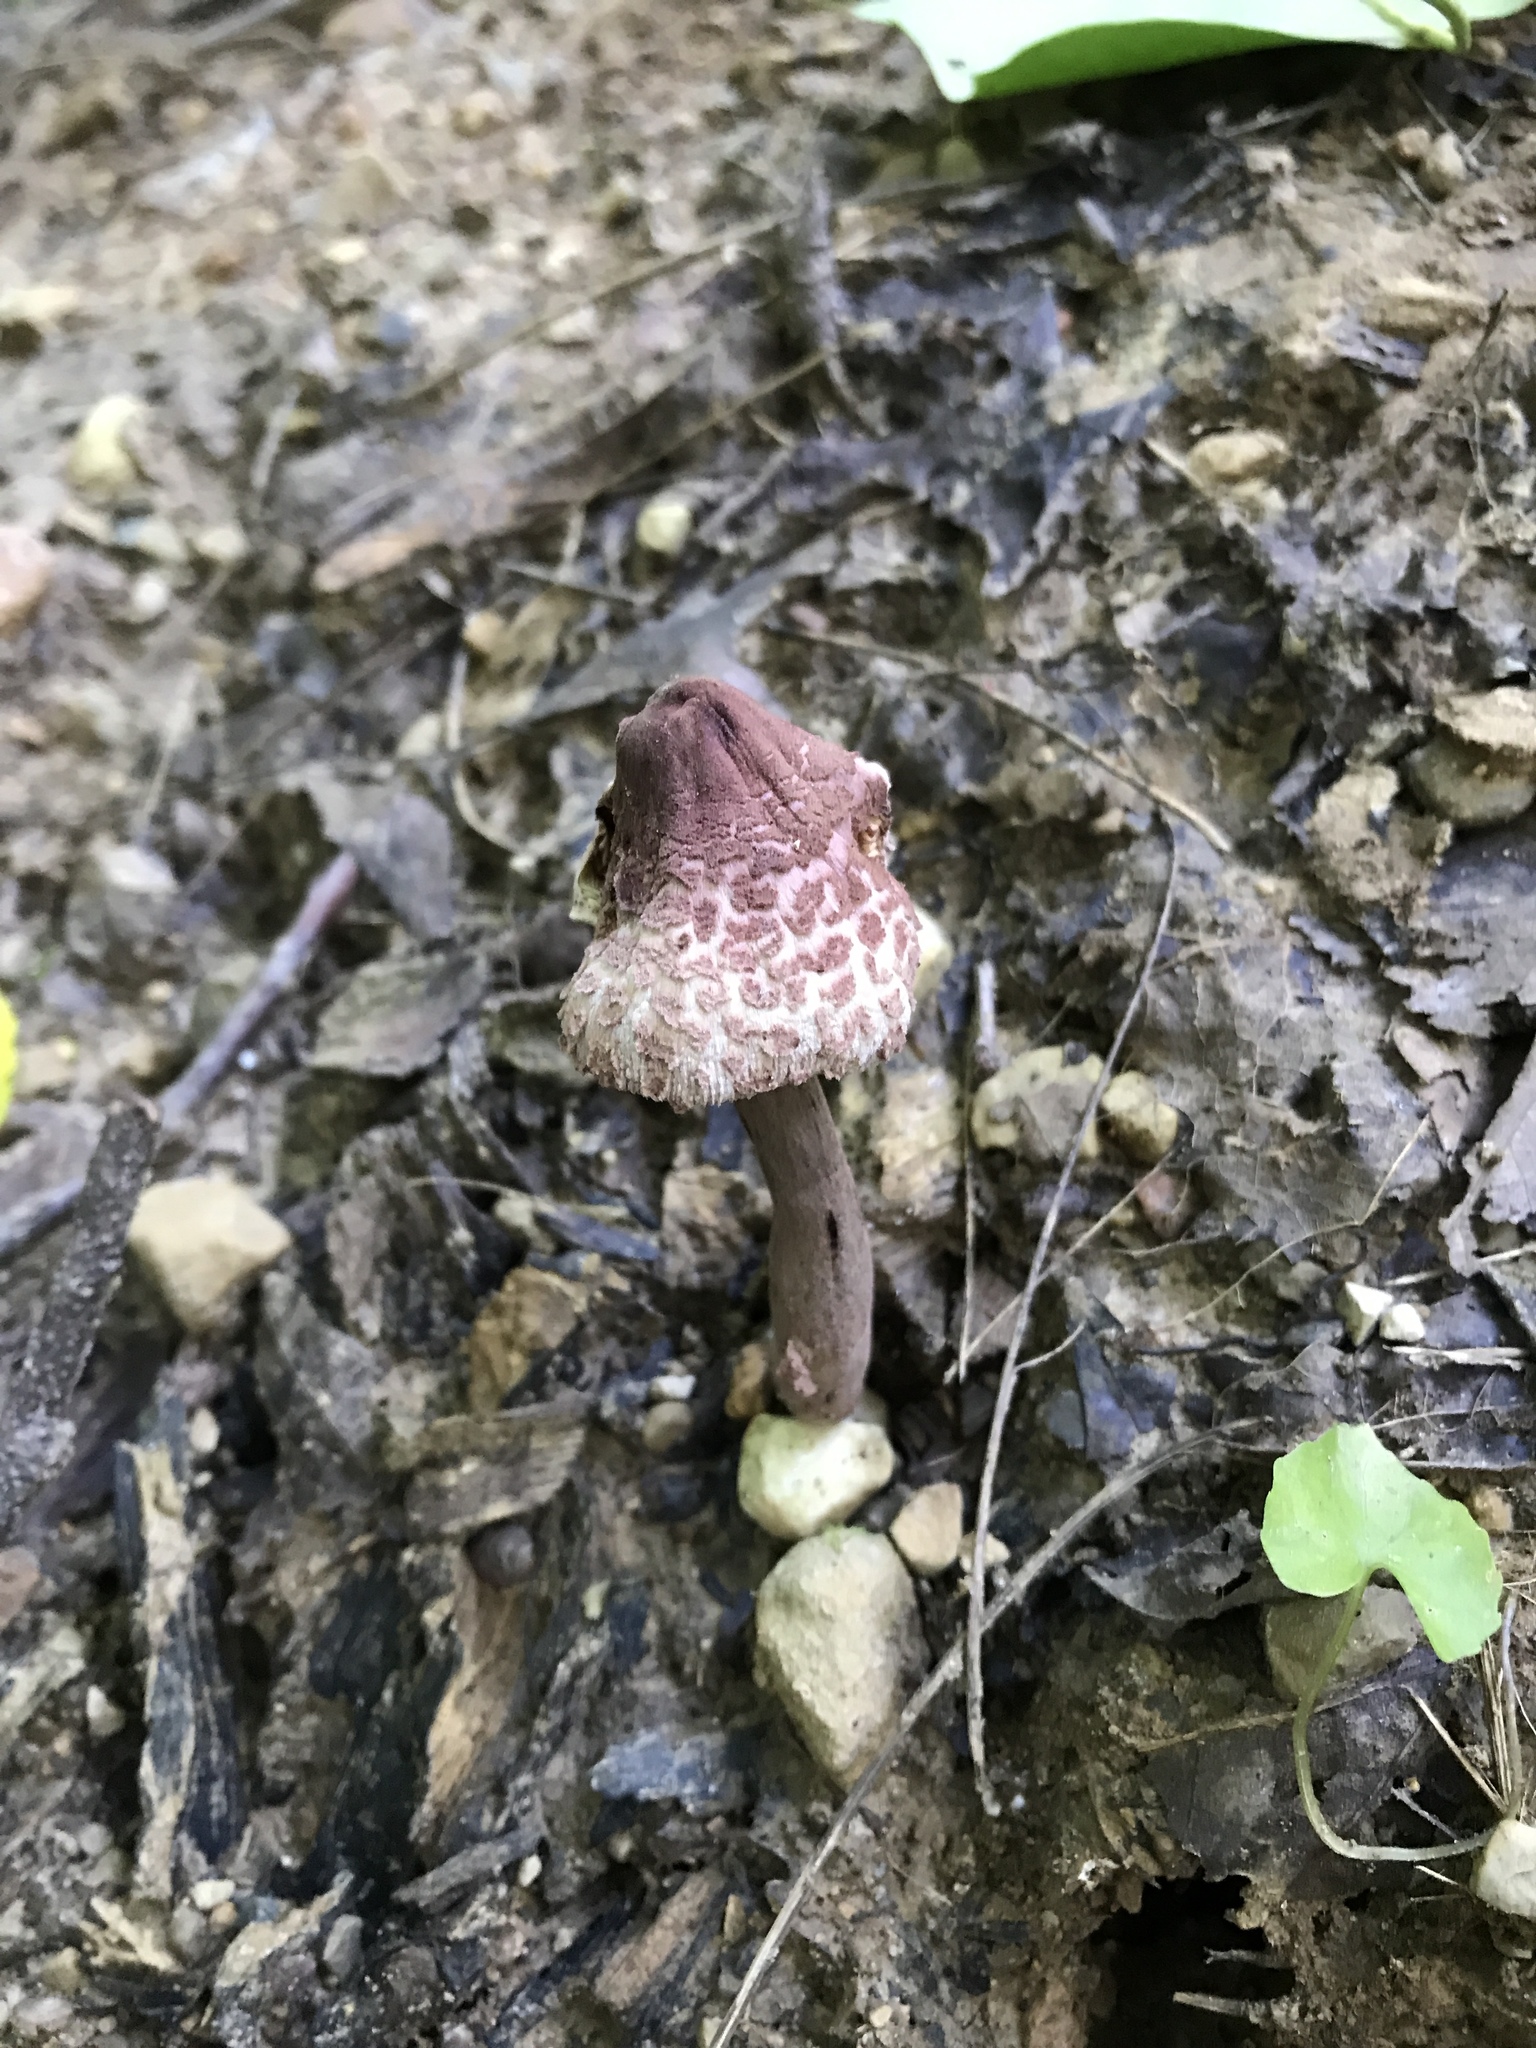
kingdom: Fungi
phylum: Basidiomycota
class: Agaricomycetes
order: Agaricales
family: Agaricaceae
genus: Leucoagaricus
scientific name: Leucoagaricus americanus
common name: Reddening lepiota
